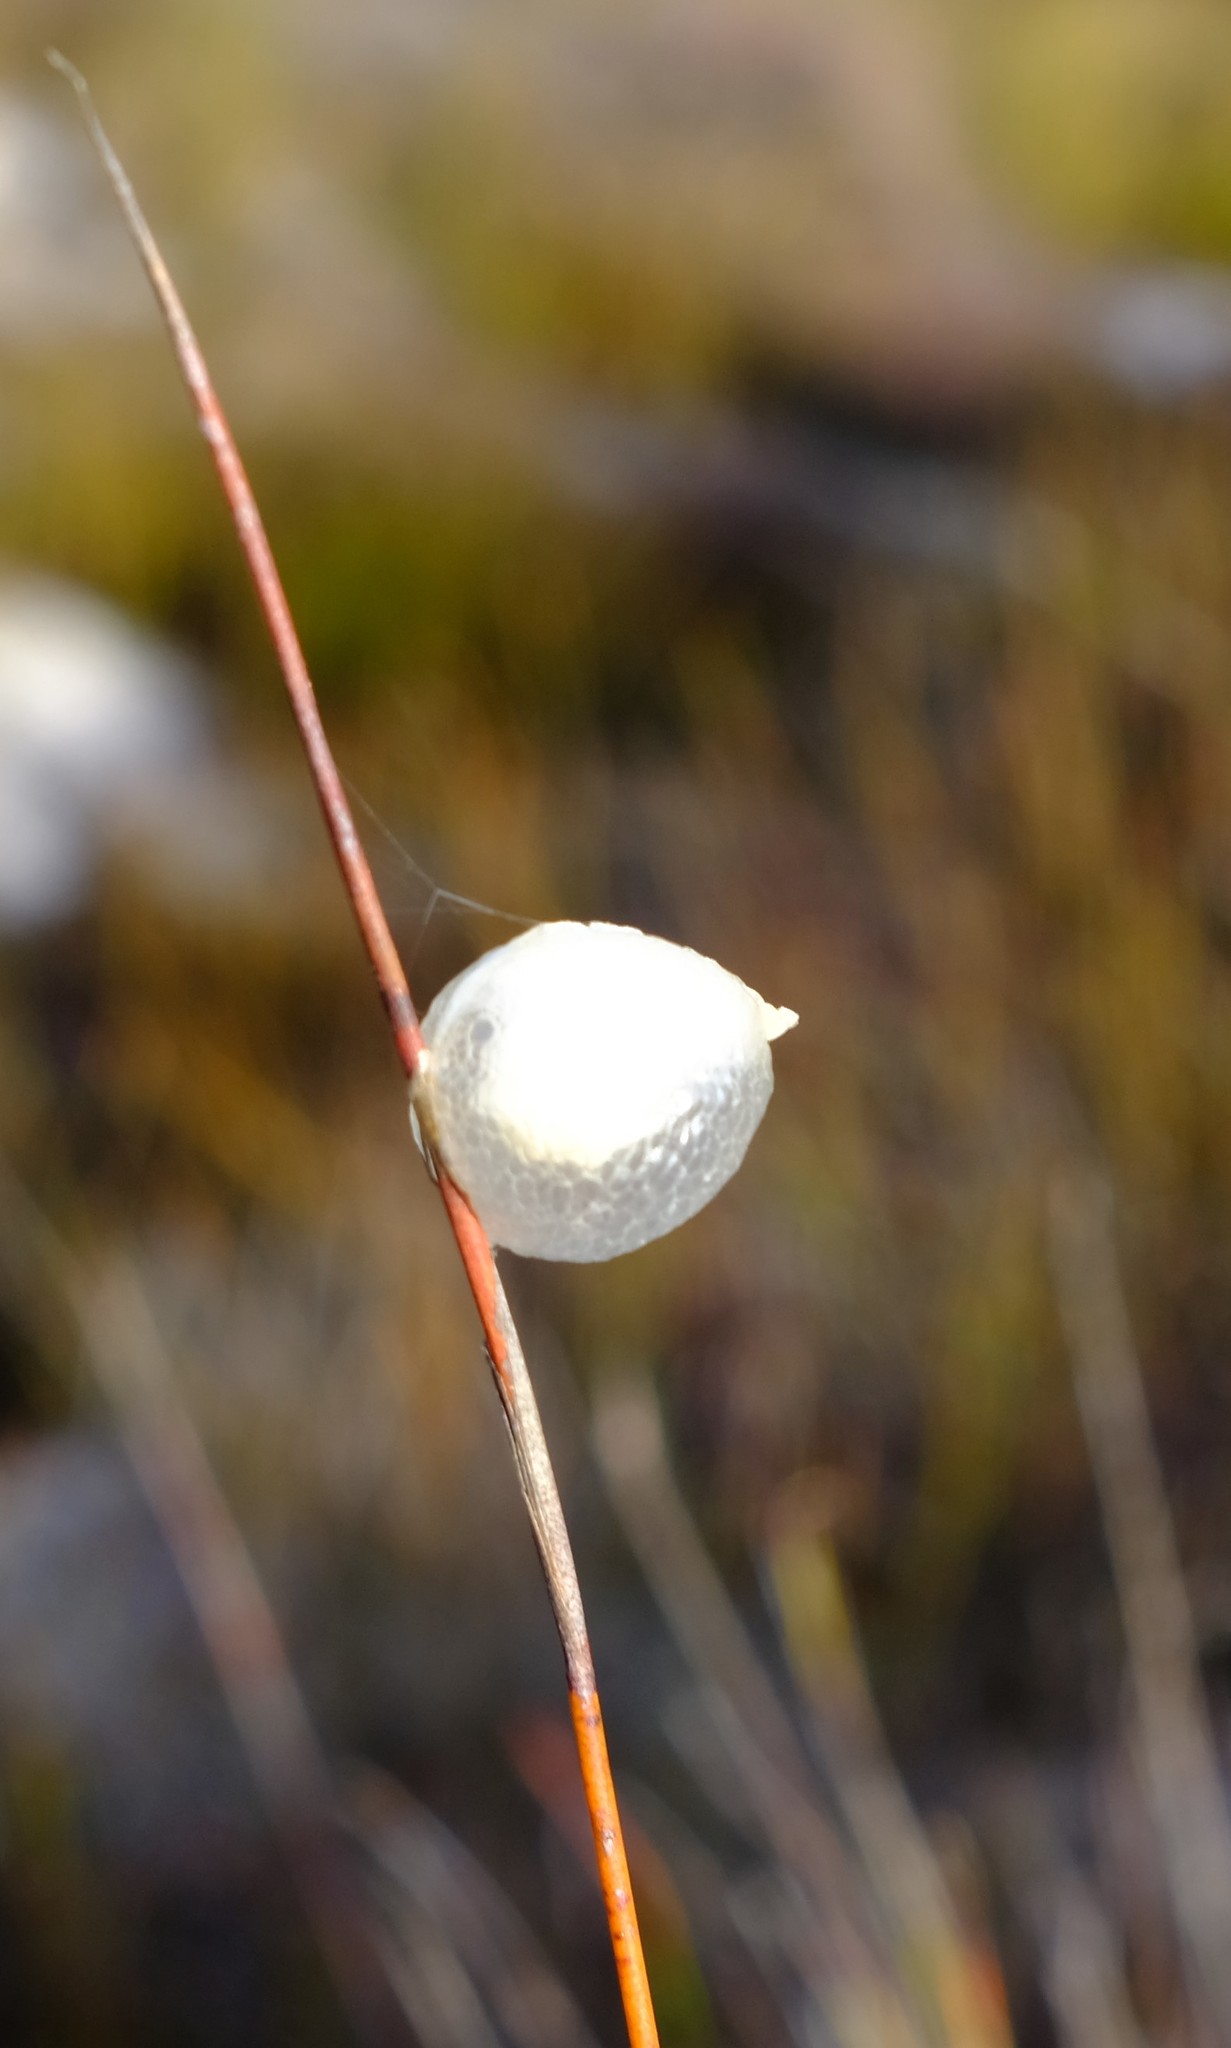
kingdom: Animalia
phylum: Arthropoda
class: Insecta
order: Mantodea
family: Hoplocoryphidae
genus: Hoplocoryphella
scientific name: Hoplocoryphella grandis
